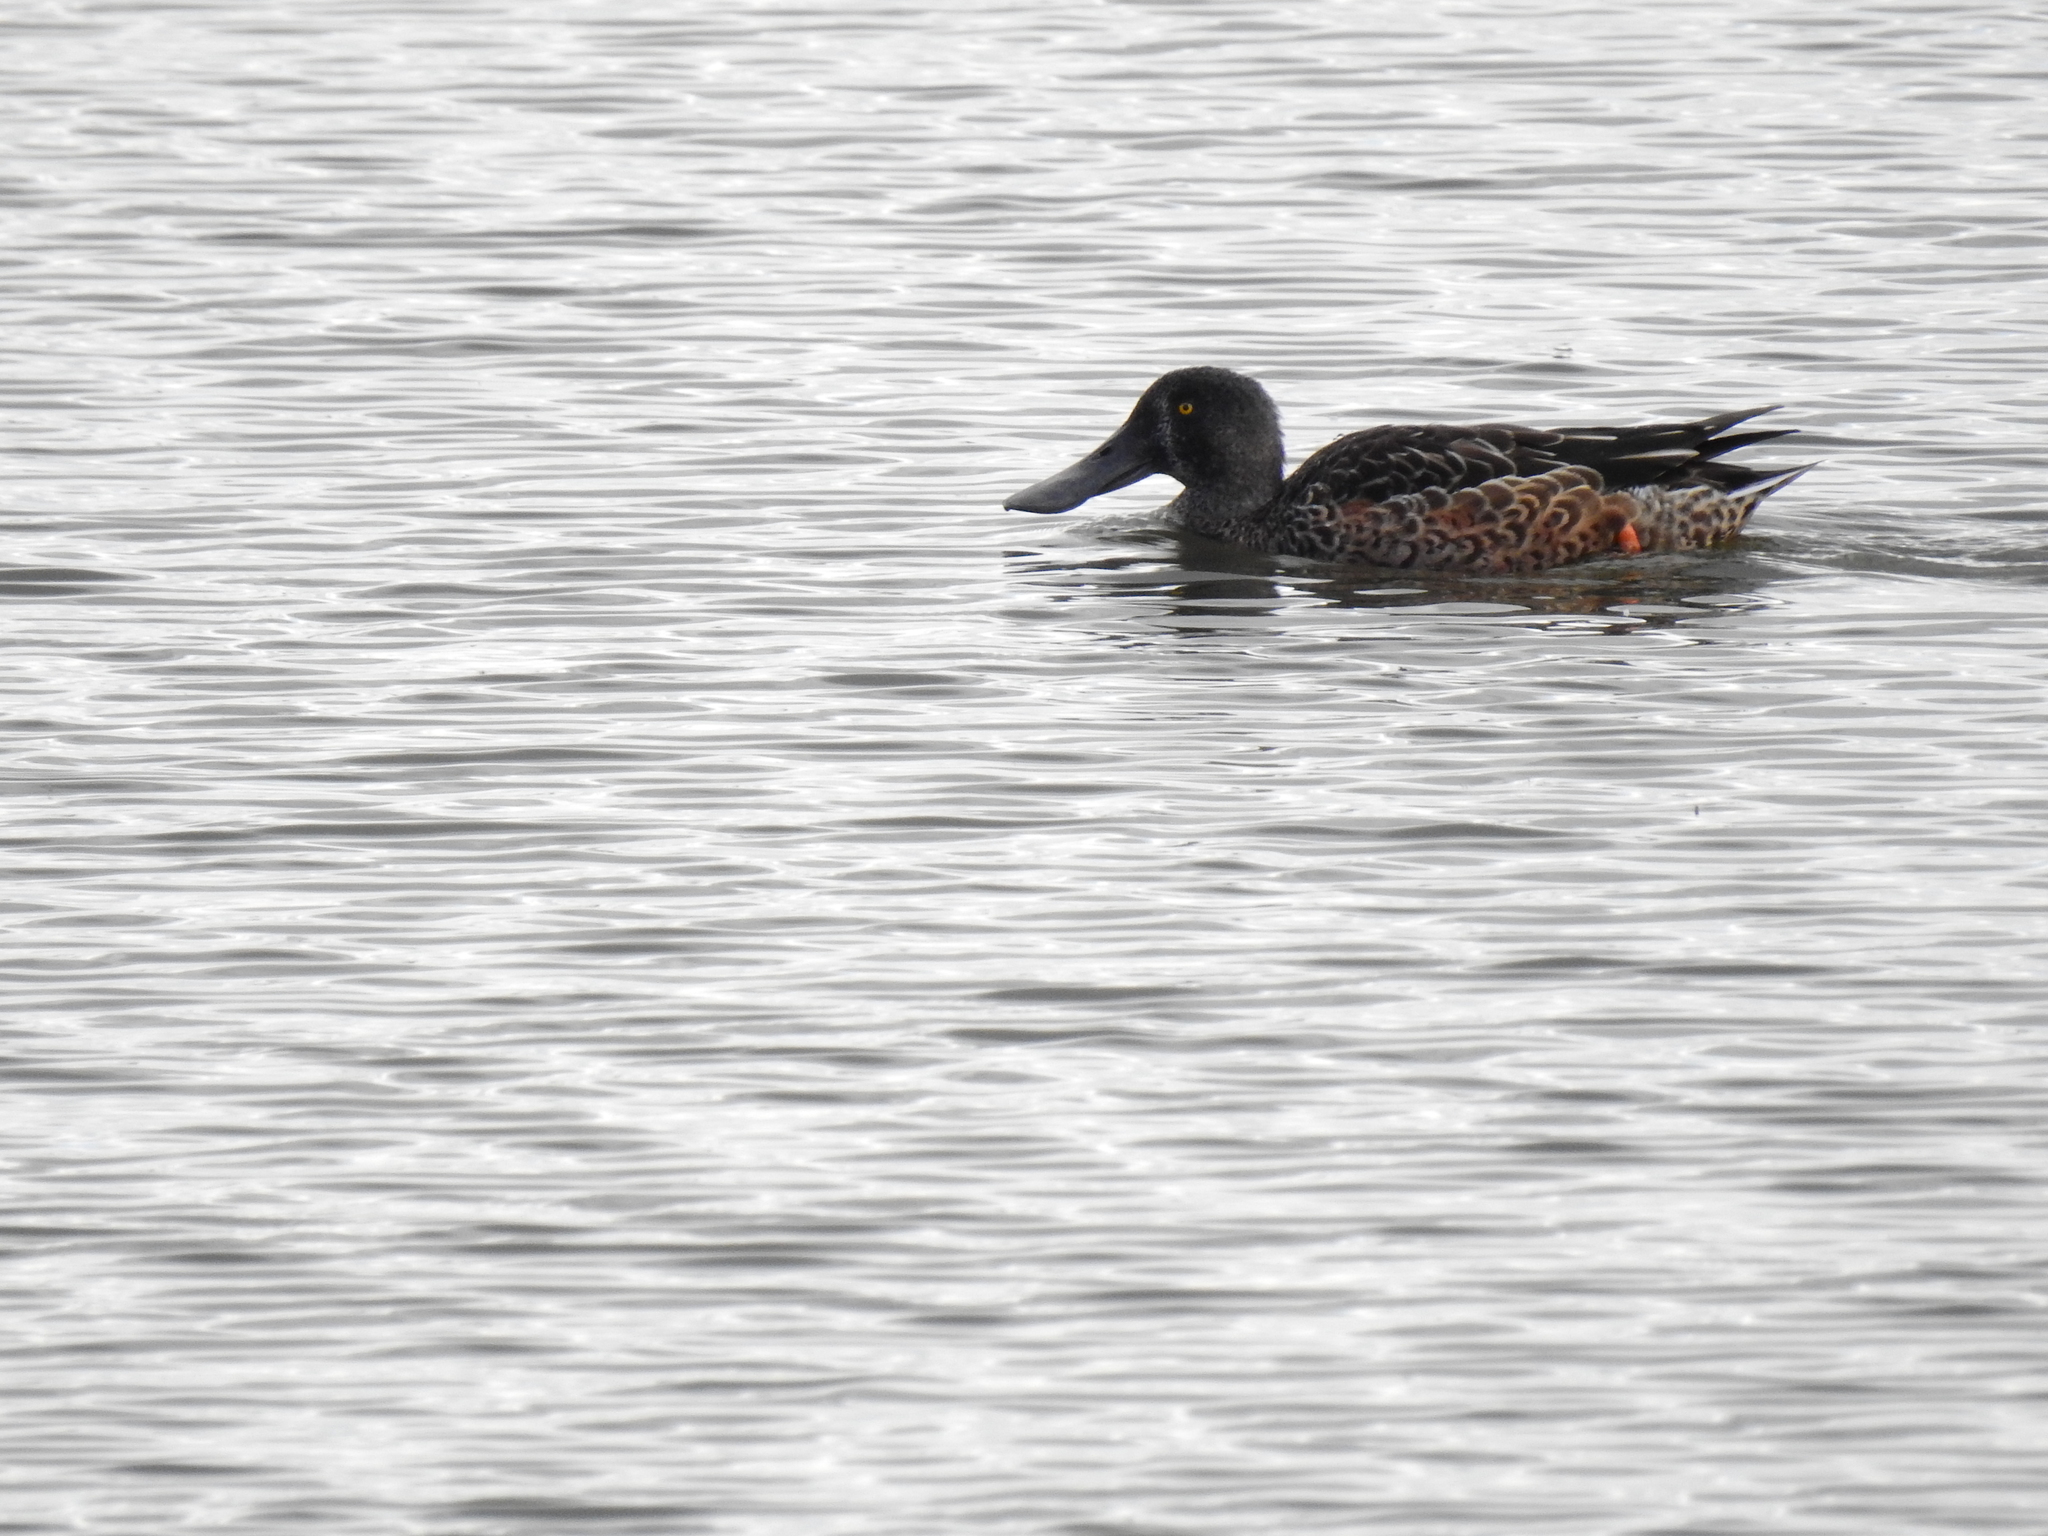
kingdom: Animalia
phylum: Chordata
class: Aves
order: Anseriformes
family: Anatidae
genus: Spatula
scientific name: Spatula clypeata
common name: Northern shoveler
